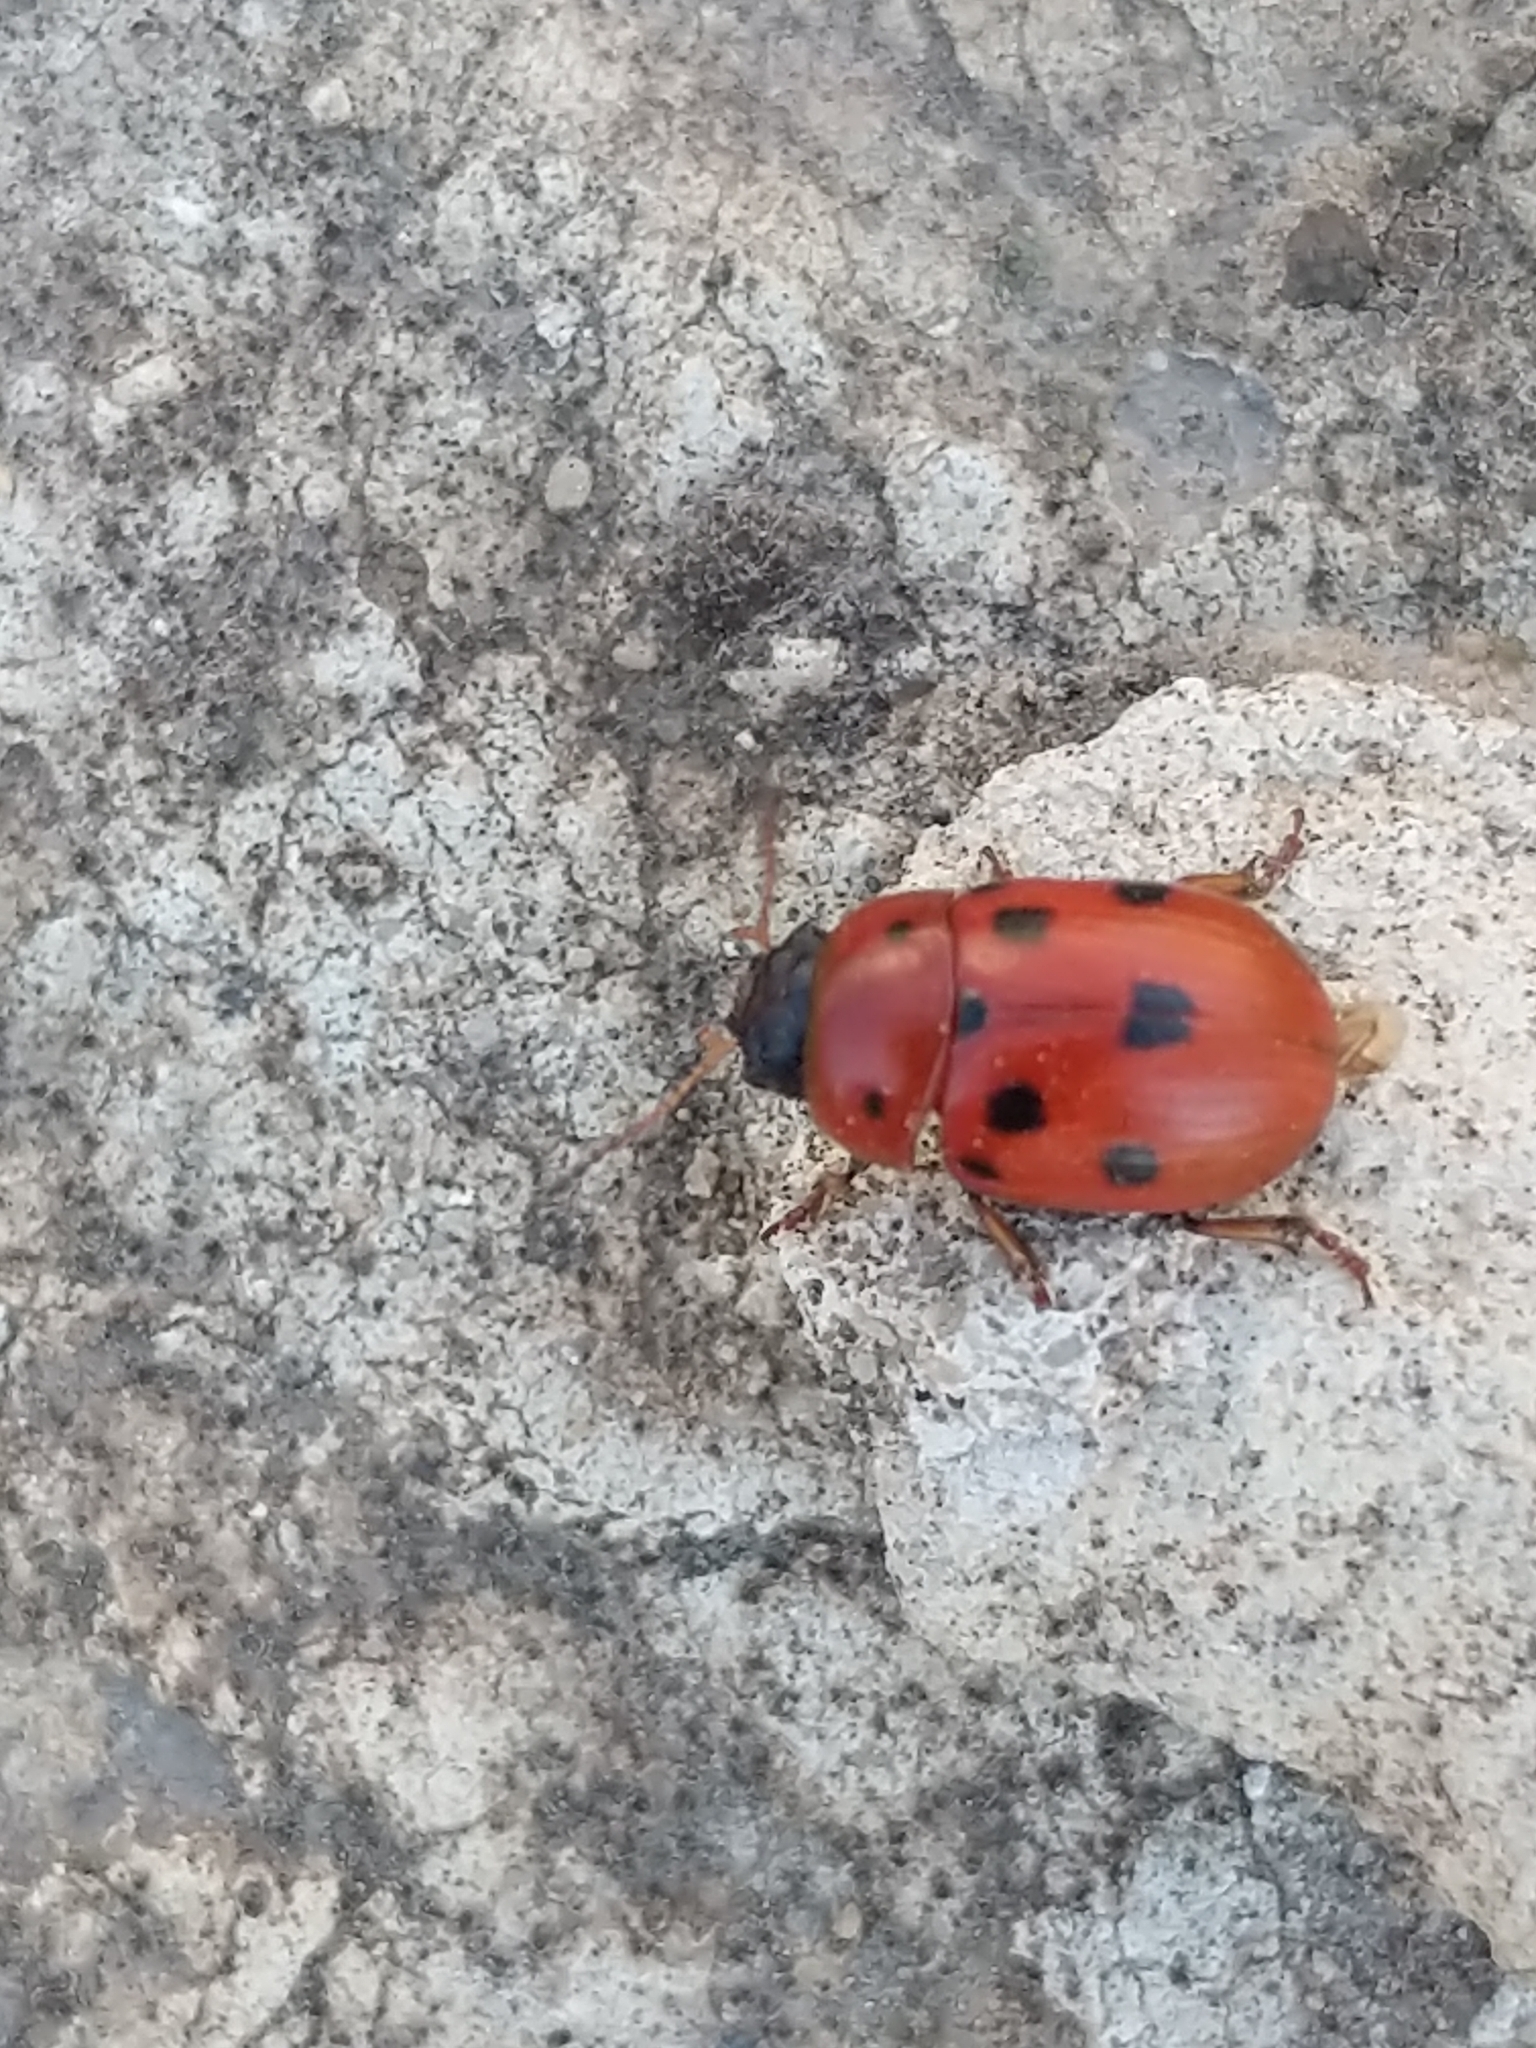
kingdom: Animalia
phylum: Arthropoda
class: Insecta
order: Coleoptera
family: Chrysomelidae
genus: Gonioctena
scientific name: Gonioctena fornicata
